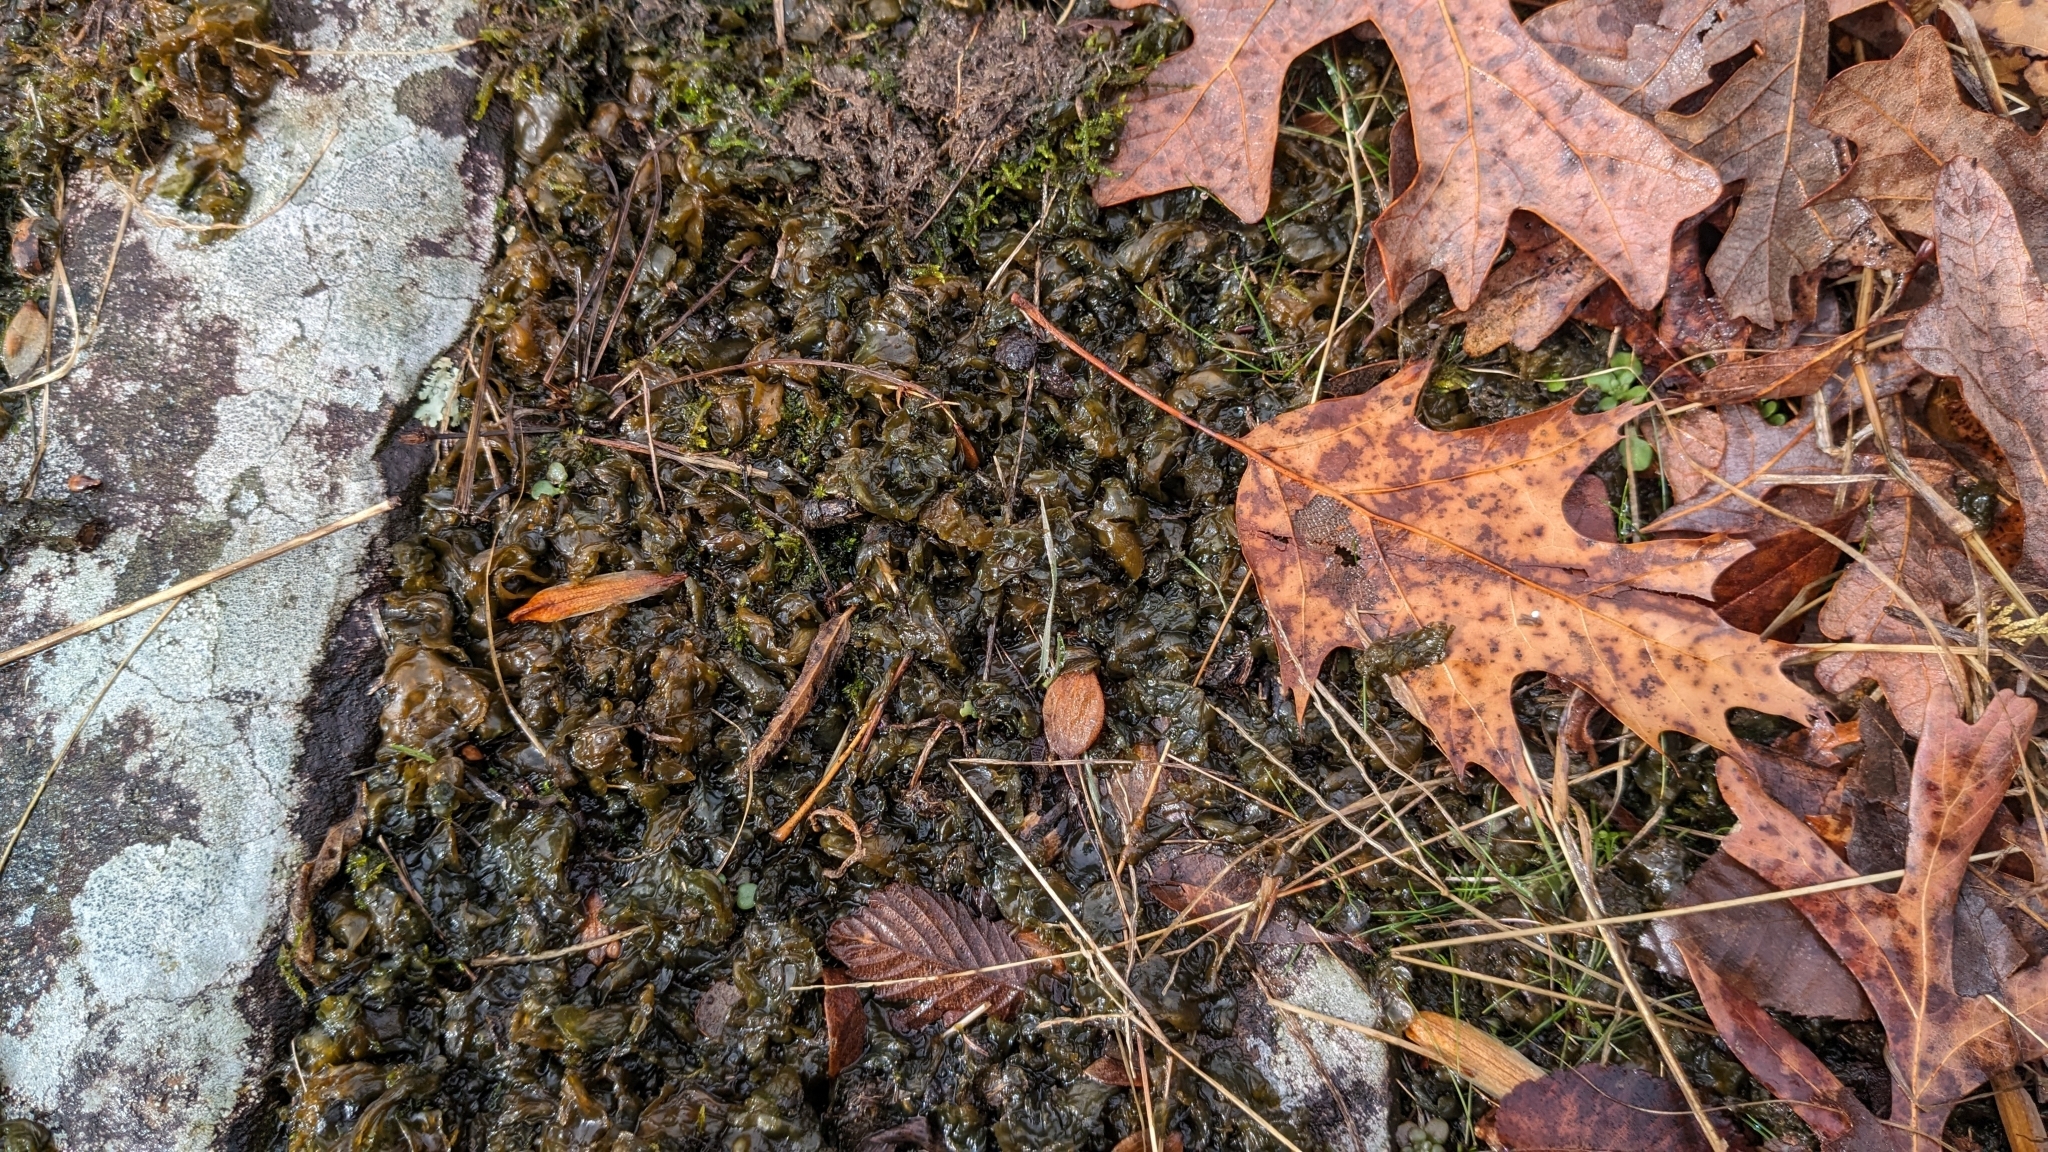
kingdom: Bacteria
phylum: Cyanobacteria
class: Cyanobacteriia
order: Cyanobacteriales
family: Nostocaceae
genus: Nostoc
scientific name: Nostoc commune
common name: Star jelly
